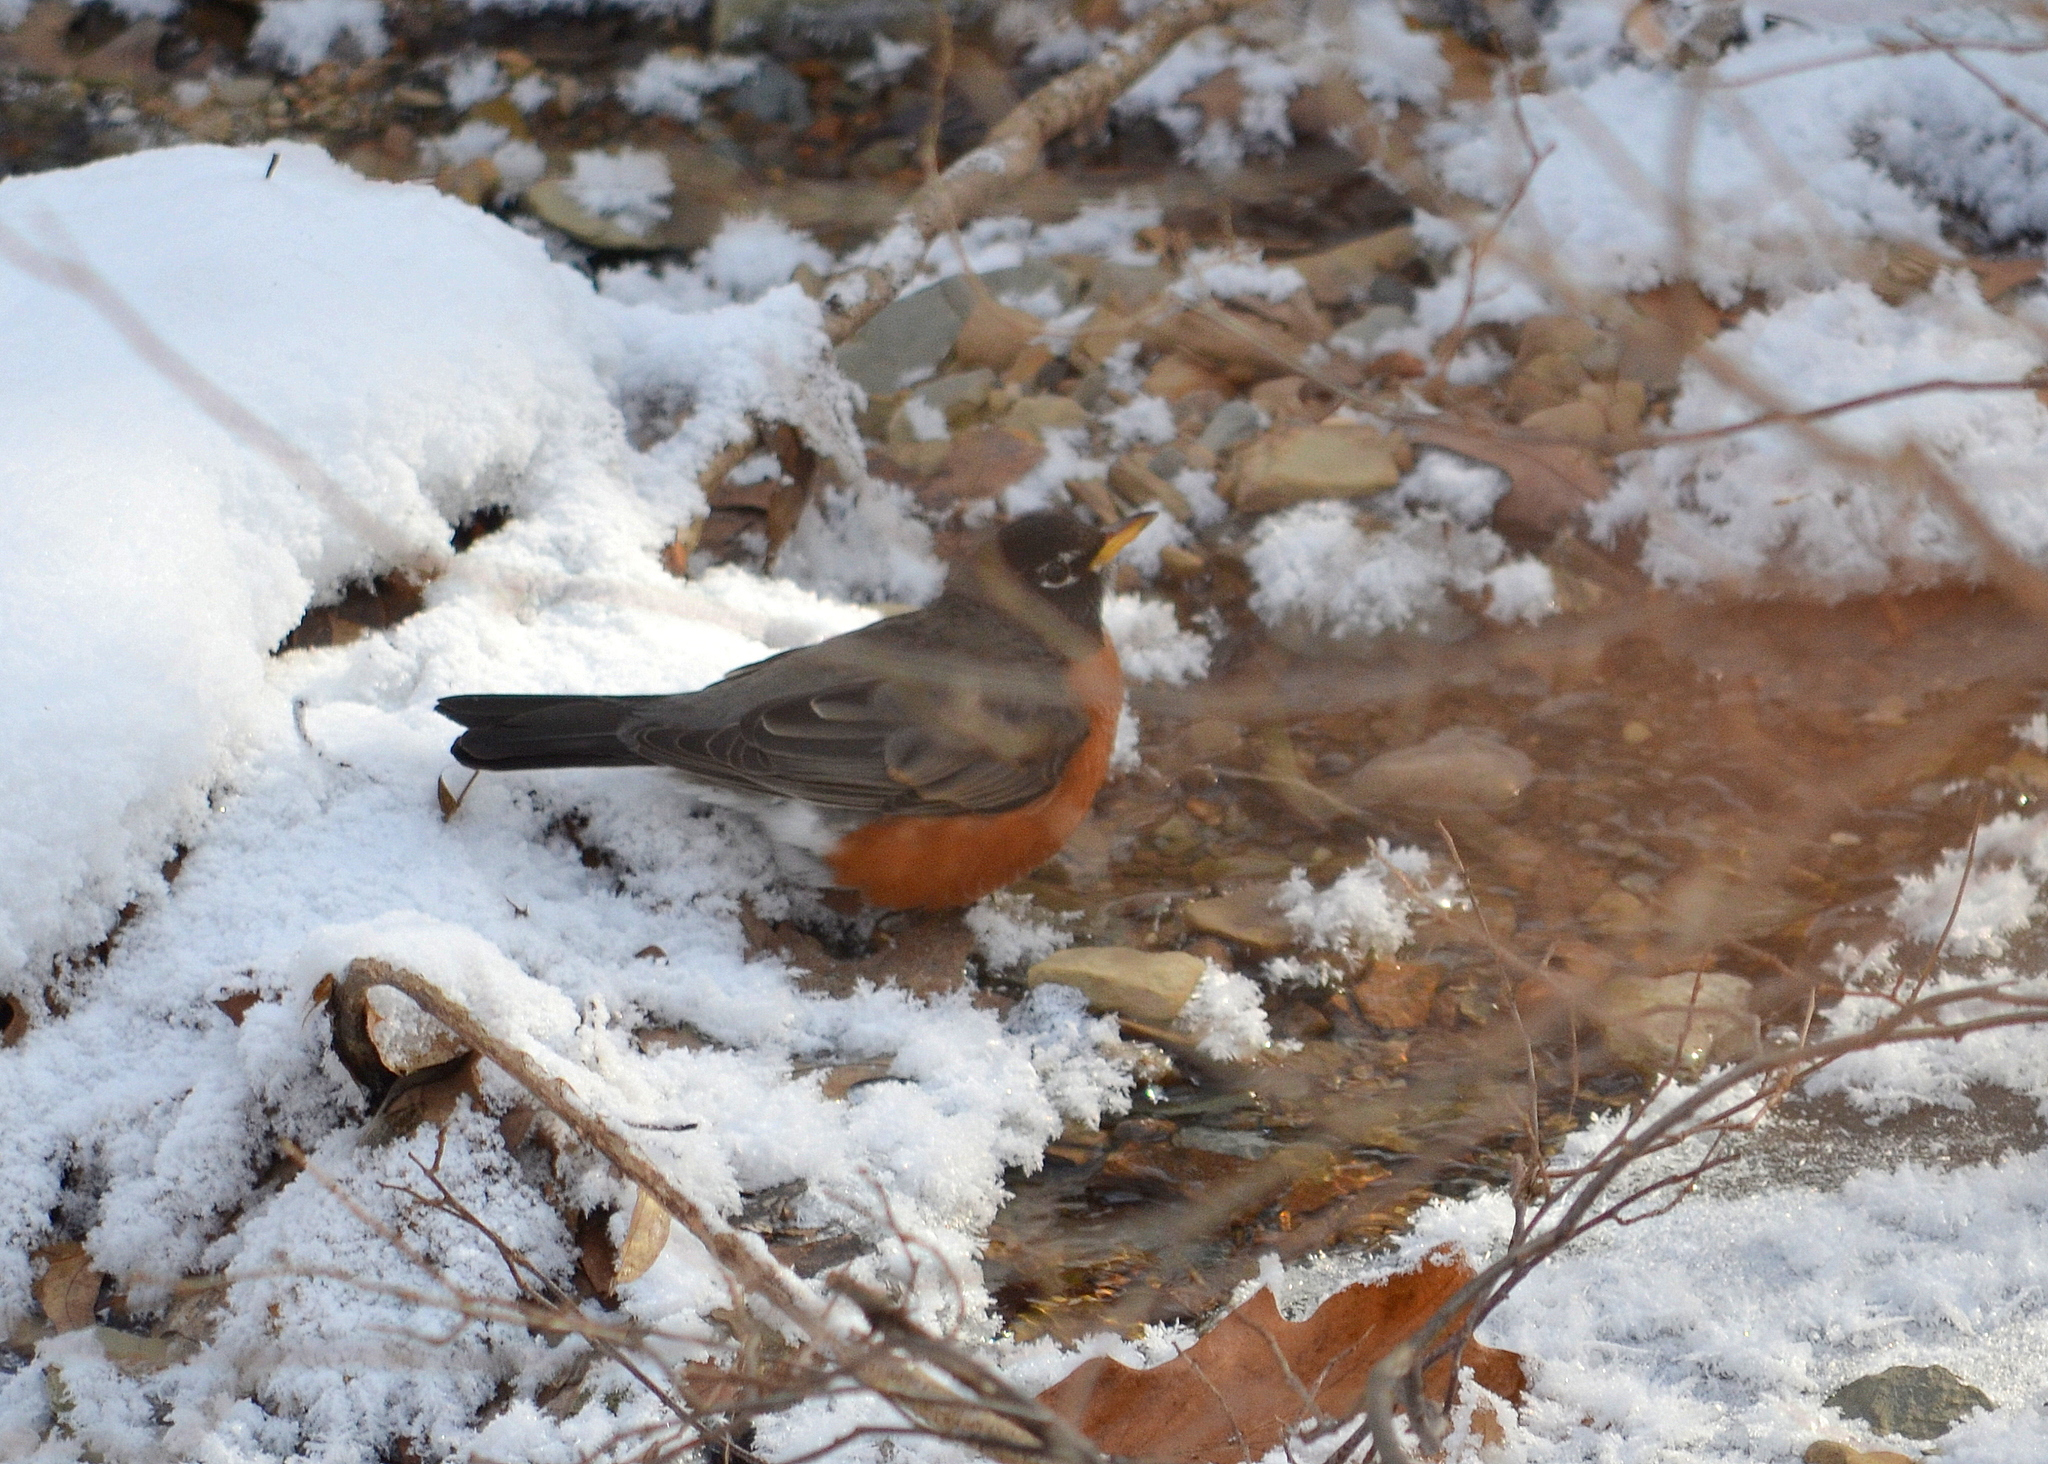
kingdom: Animalia
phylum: Chordata
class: Aves
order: Passeriformes
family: Turdidae
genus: Turdus
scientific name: Turdus migratorius
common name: American robin
